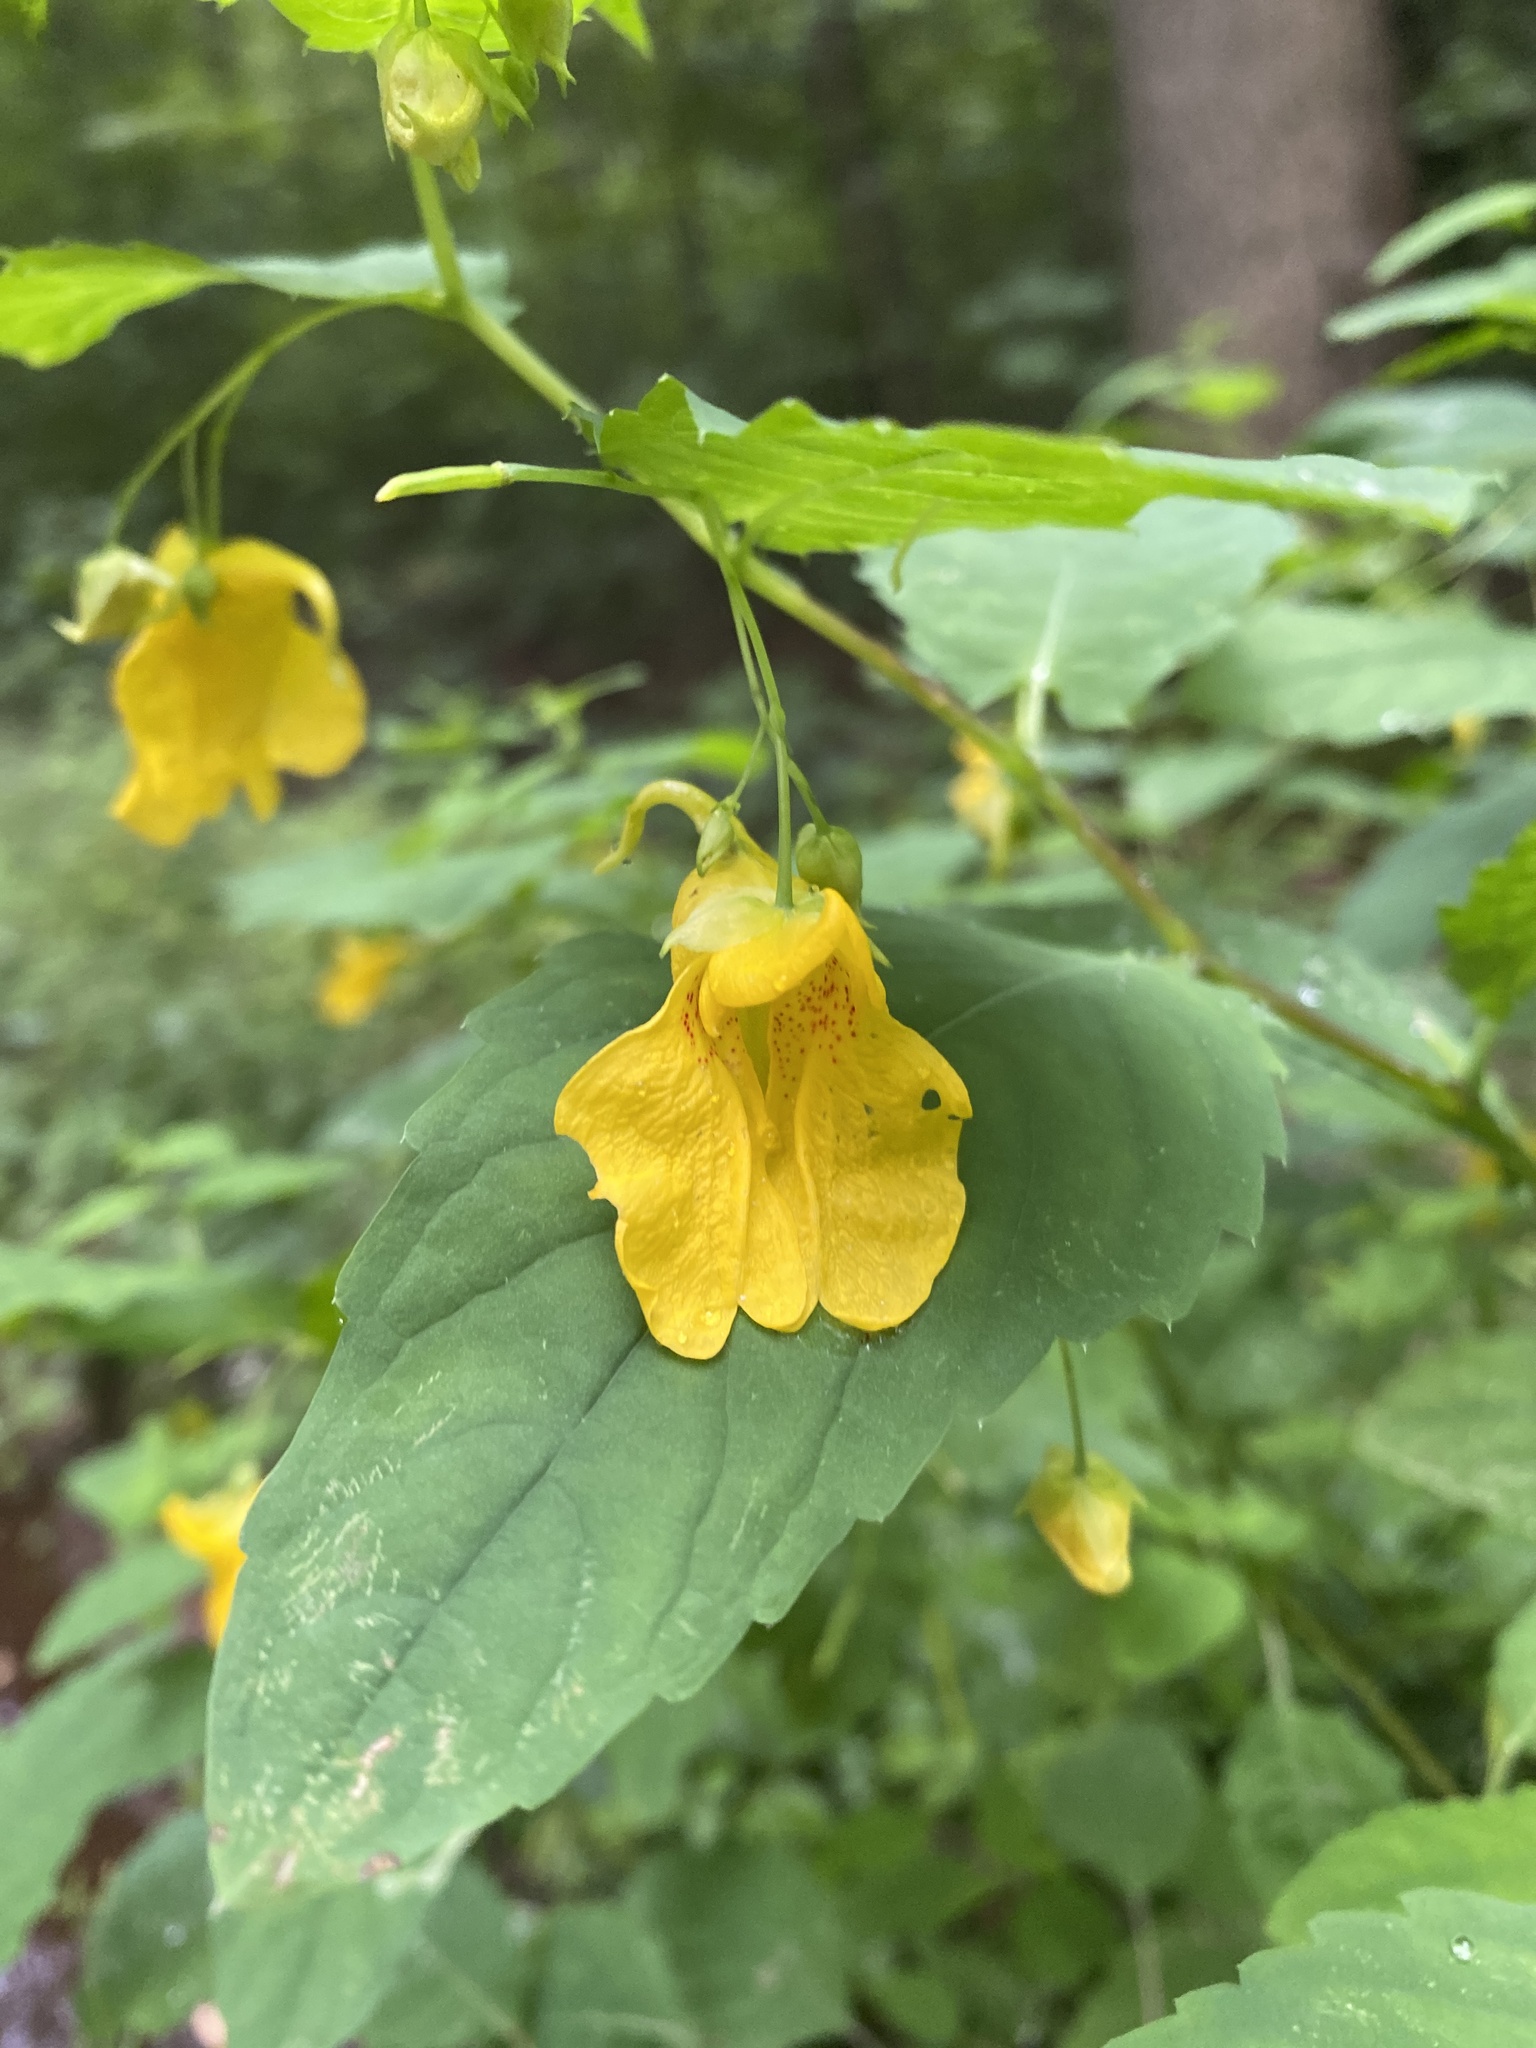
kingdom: Plantae
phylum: Tracheophyta
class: Magnoliopsida
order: Ericales
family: Balsaminaceae
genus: Impatiens
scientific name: Impatiens noli-tangere
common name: Touch-me-not balsam
